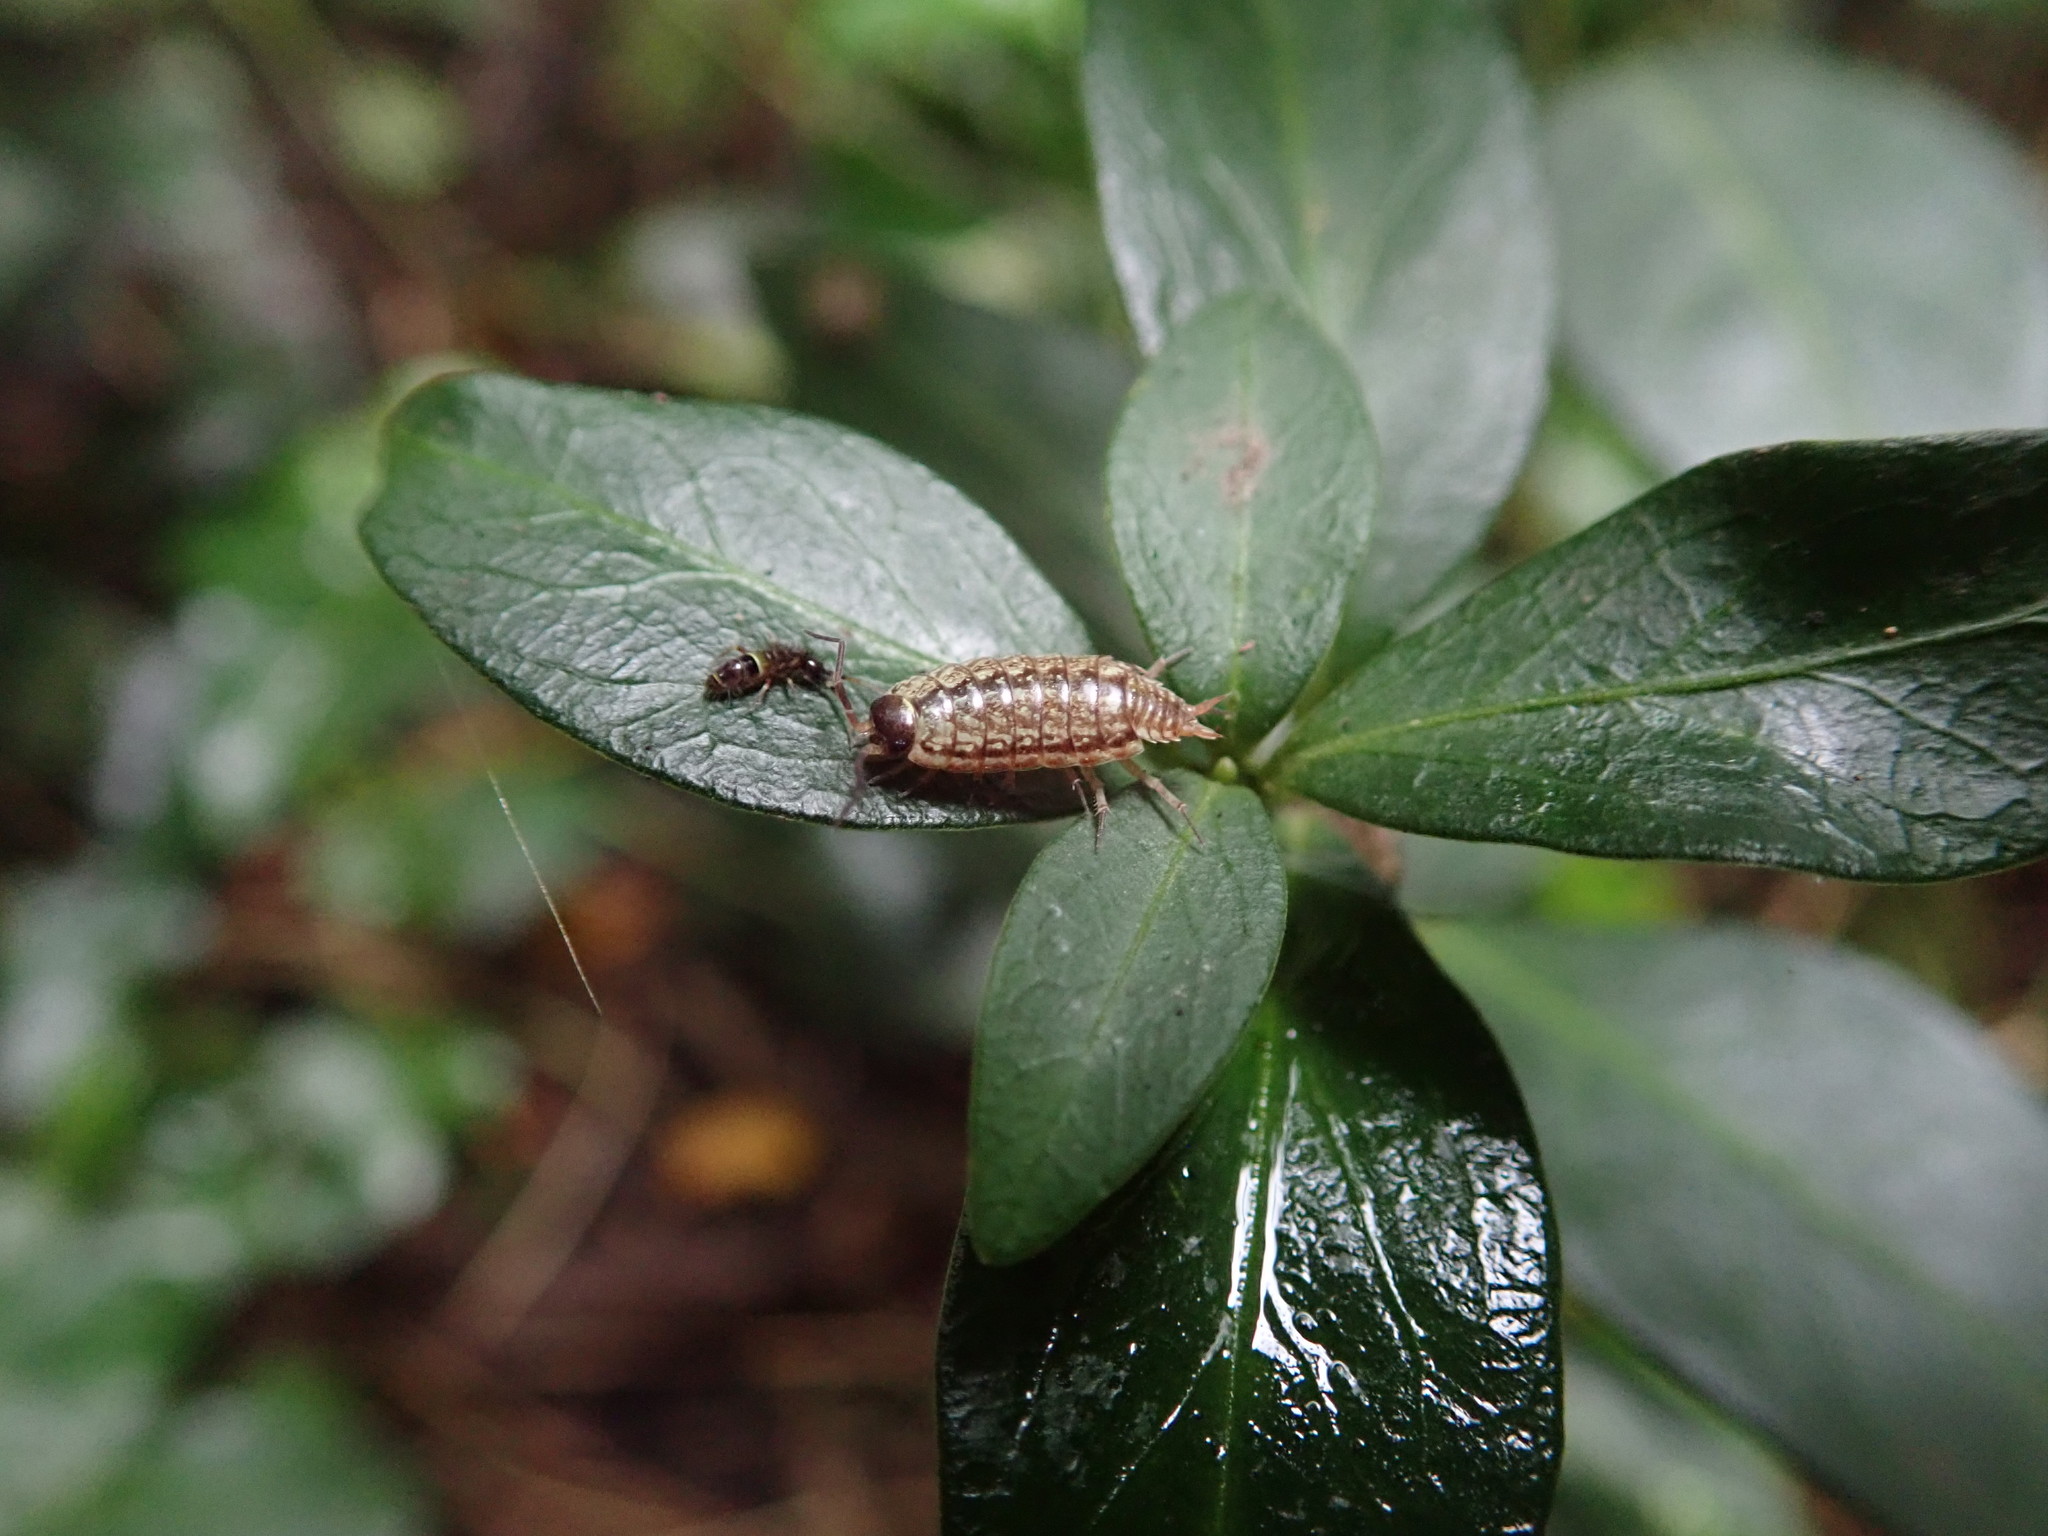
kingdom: Animalia
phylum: Arthropoda
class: Malacostraca
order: Isopoda
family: Philosciidae
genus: Philoscia
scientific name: Philoscia muscorum
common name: Common striped woodlouse
